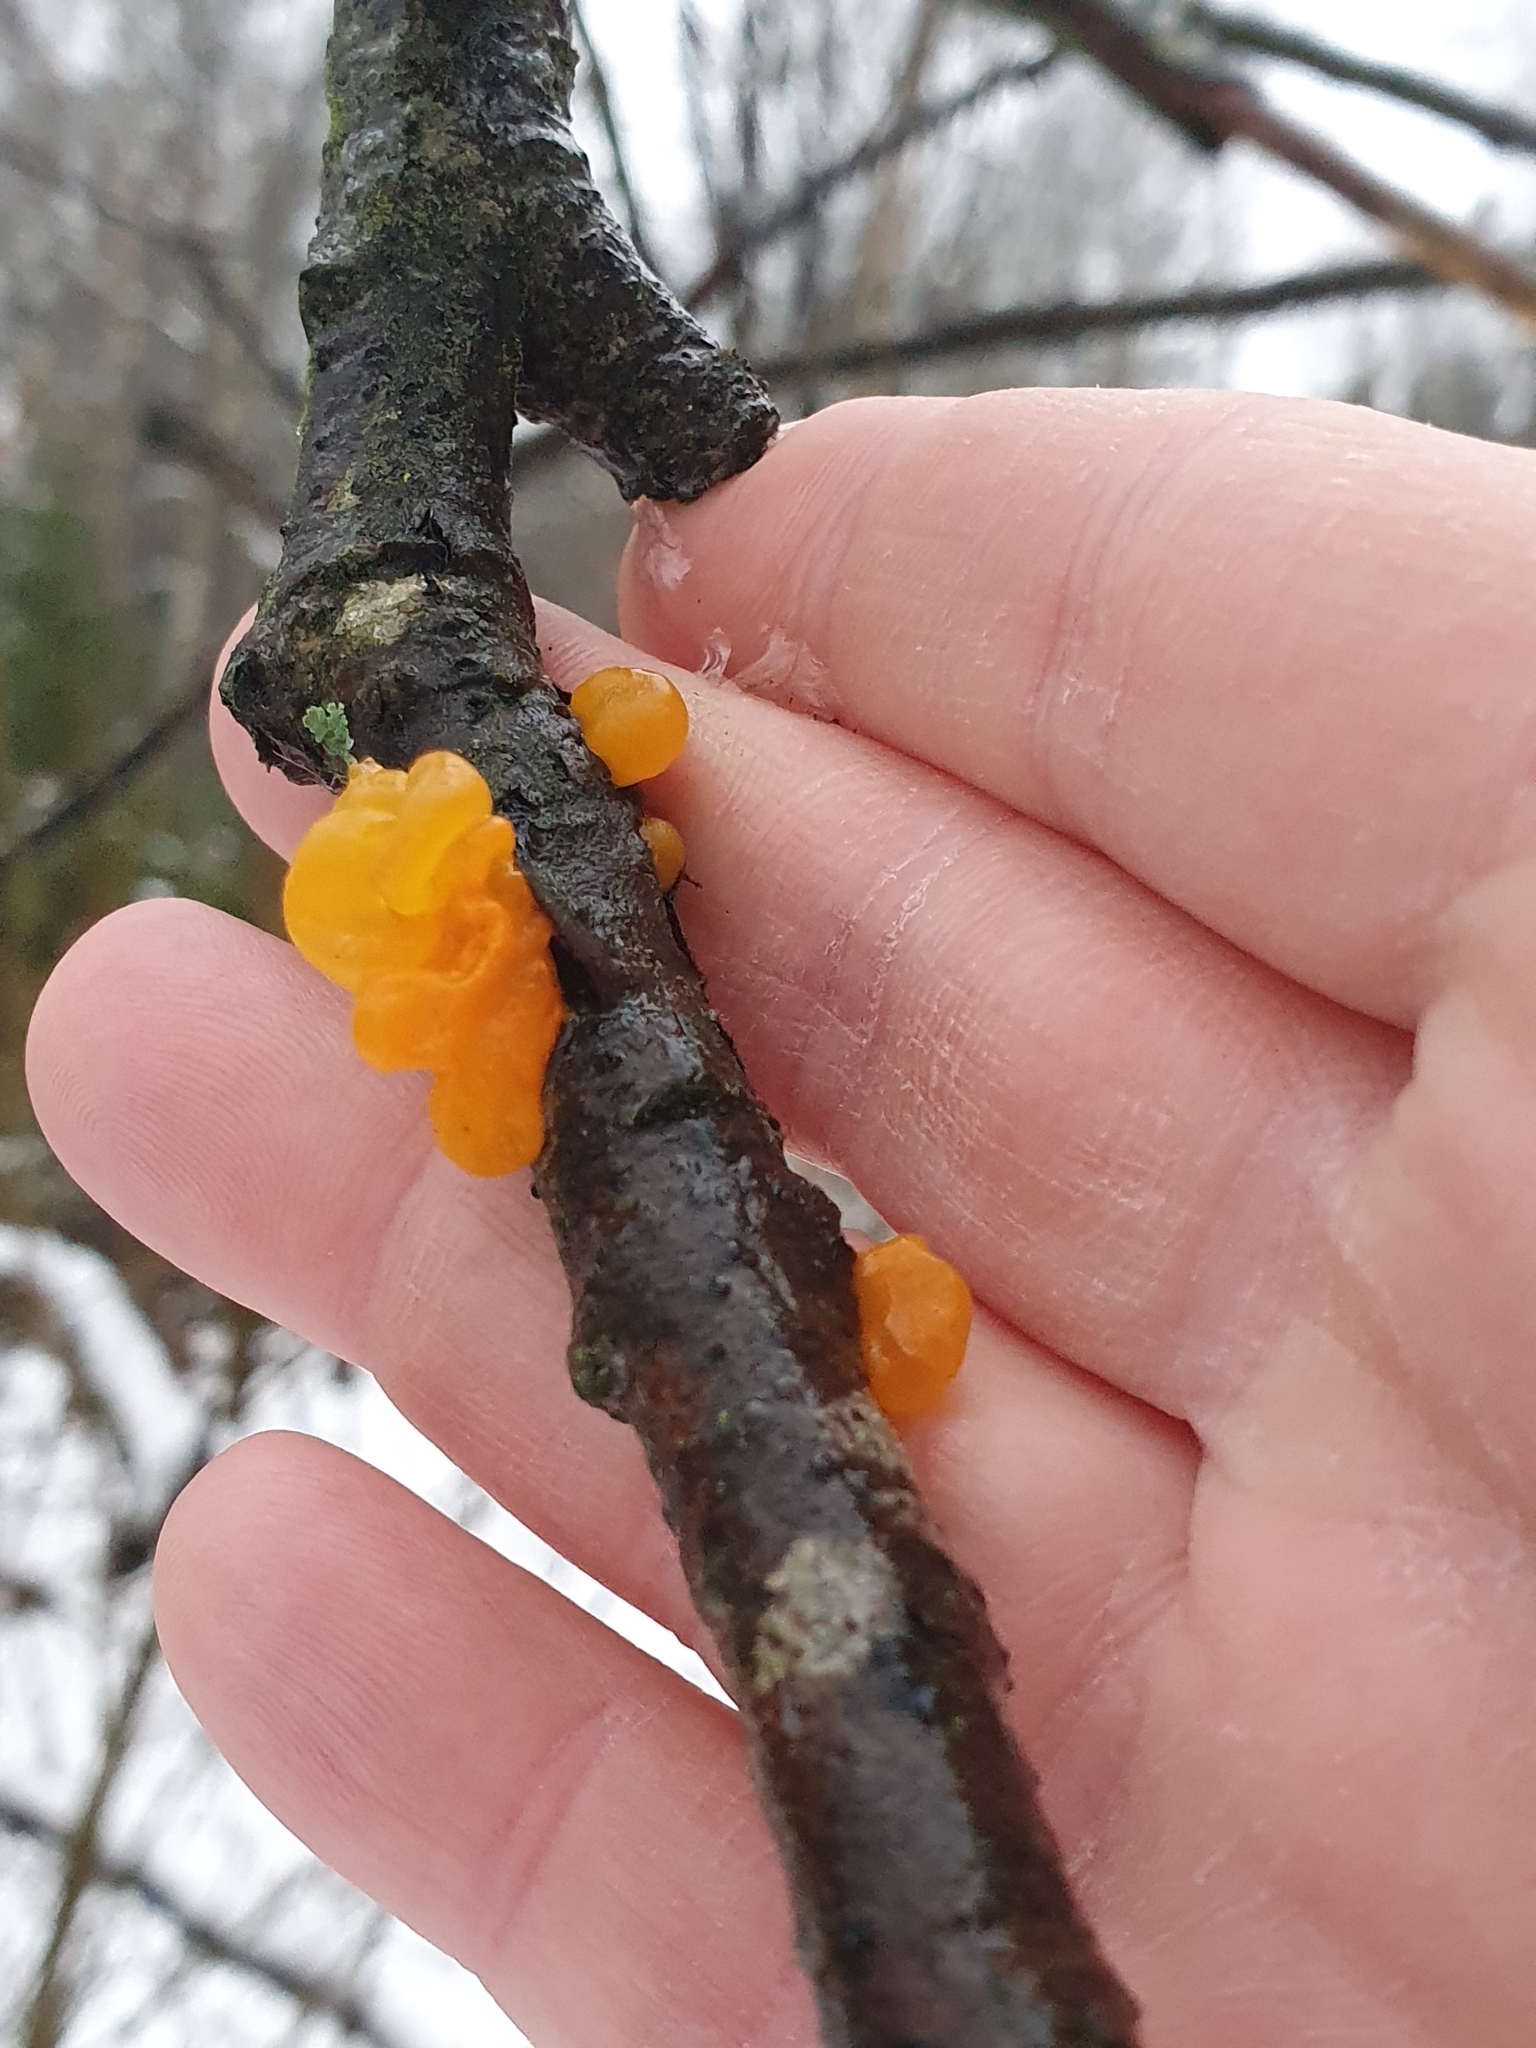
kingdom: Fungi
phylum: Basidiomycota
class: Tremellomycetes
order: Tremellales
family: Tremellaceae
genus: Tremella
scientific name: Tremella mesenterica
